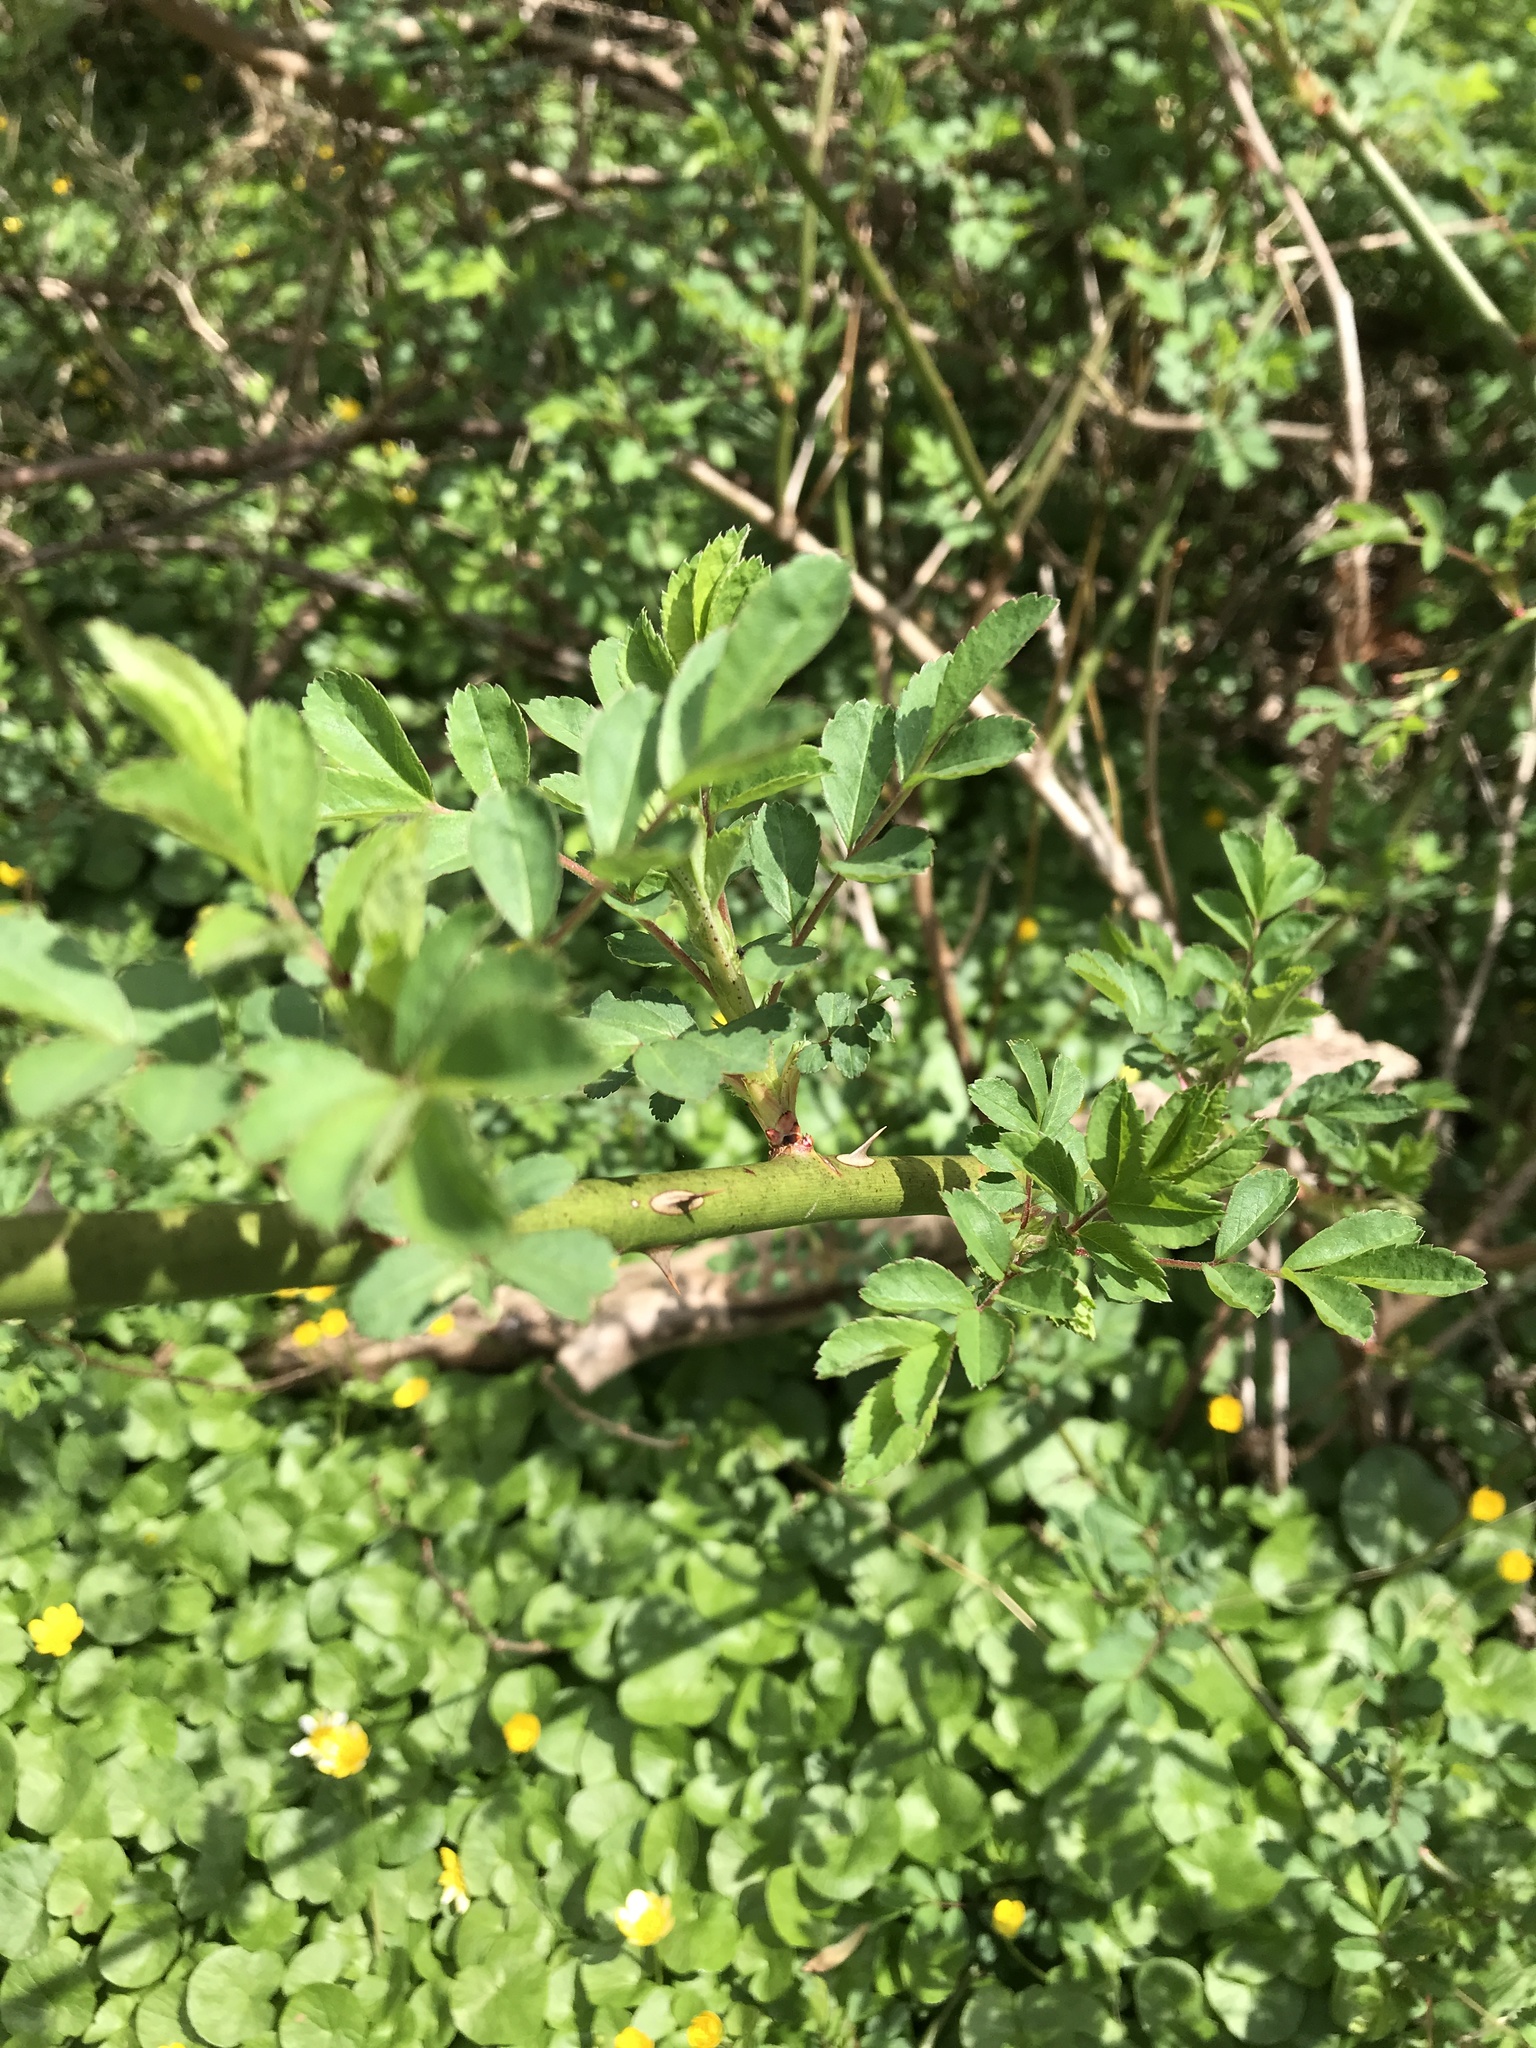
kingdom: Plantae
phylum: Tracheophyta
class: Magnoliopsida
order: Rosales
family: Rosaceae
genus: Rosa
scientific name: Rosa multiflora
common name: Multiflora rose
